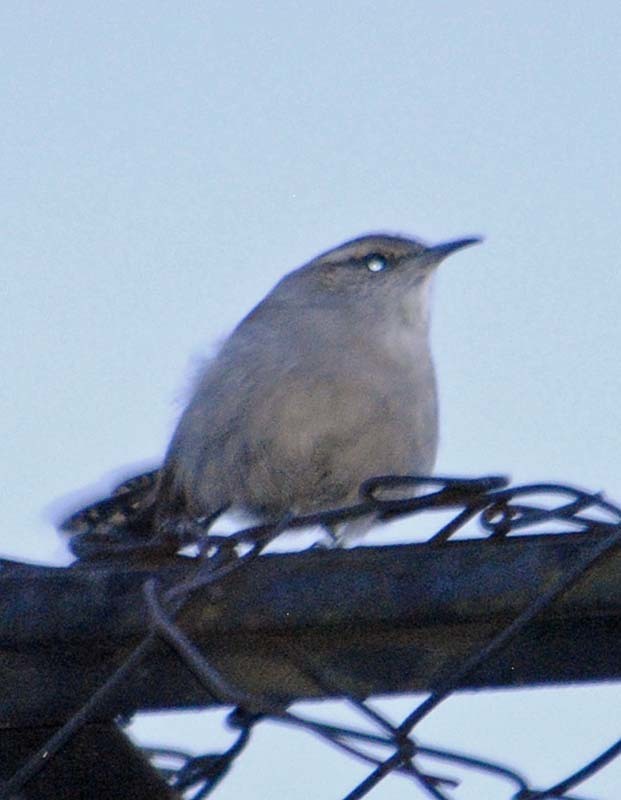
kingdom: Animalia
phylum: Chordata
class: Aves
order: Passeriformes
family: Troglodytidae
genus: Thryomanes
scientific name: Thryomanes bewickii
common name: Bewick's wren
